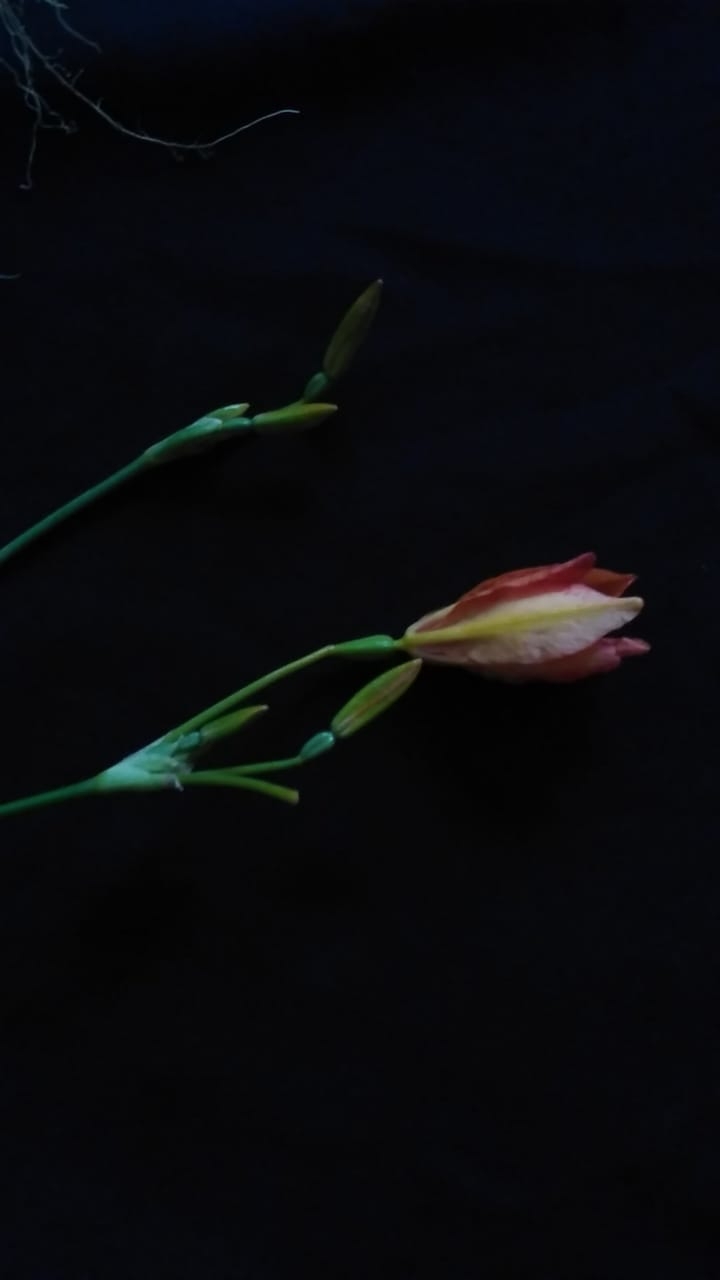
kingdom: Plantae
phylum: Tracheophyta
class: Liliopsida
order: Asparagales
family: Iridaceae
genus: Iris
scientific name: Iris domestica
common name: Belamcanda
